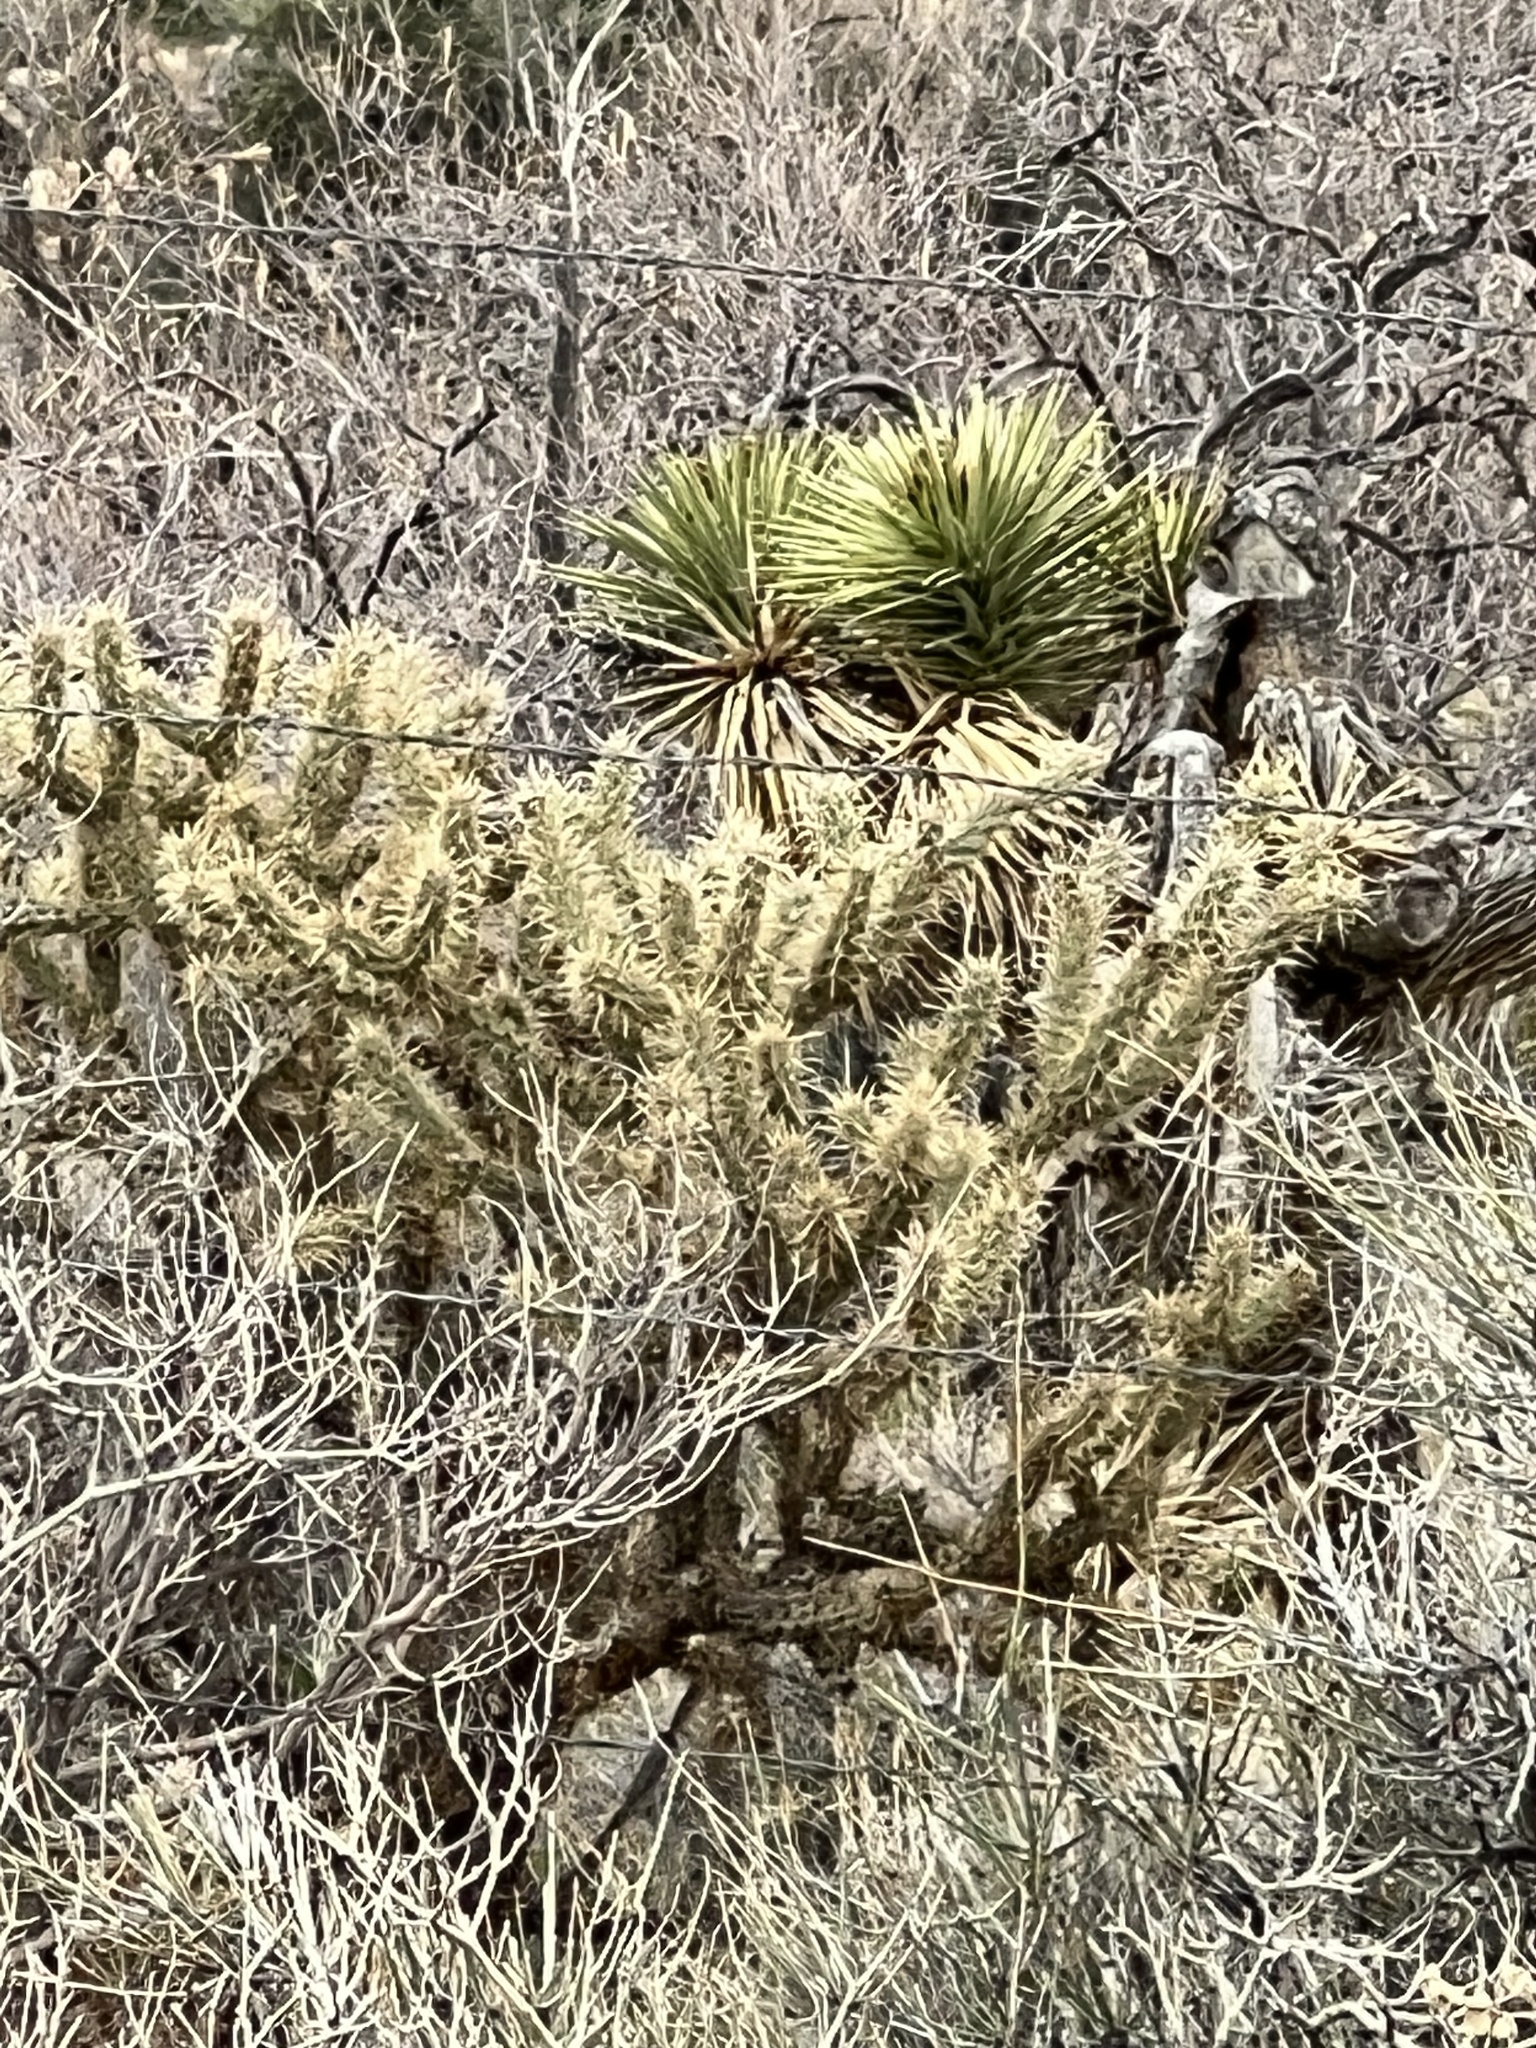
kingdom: Plantae
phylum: Tracheophyta
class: Magnoliopsida
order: Caryophyllales
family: Cactaceae
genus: Cylindropuntia
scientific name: Cylindropuntia acanthocarpa
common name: Buckhorn cholla
